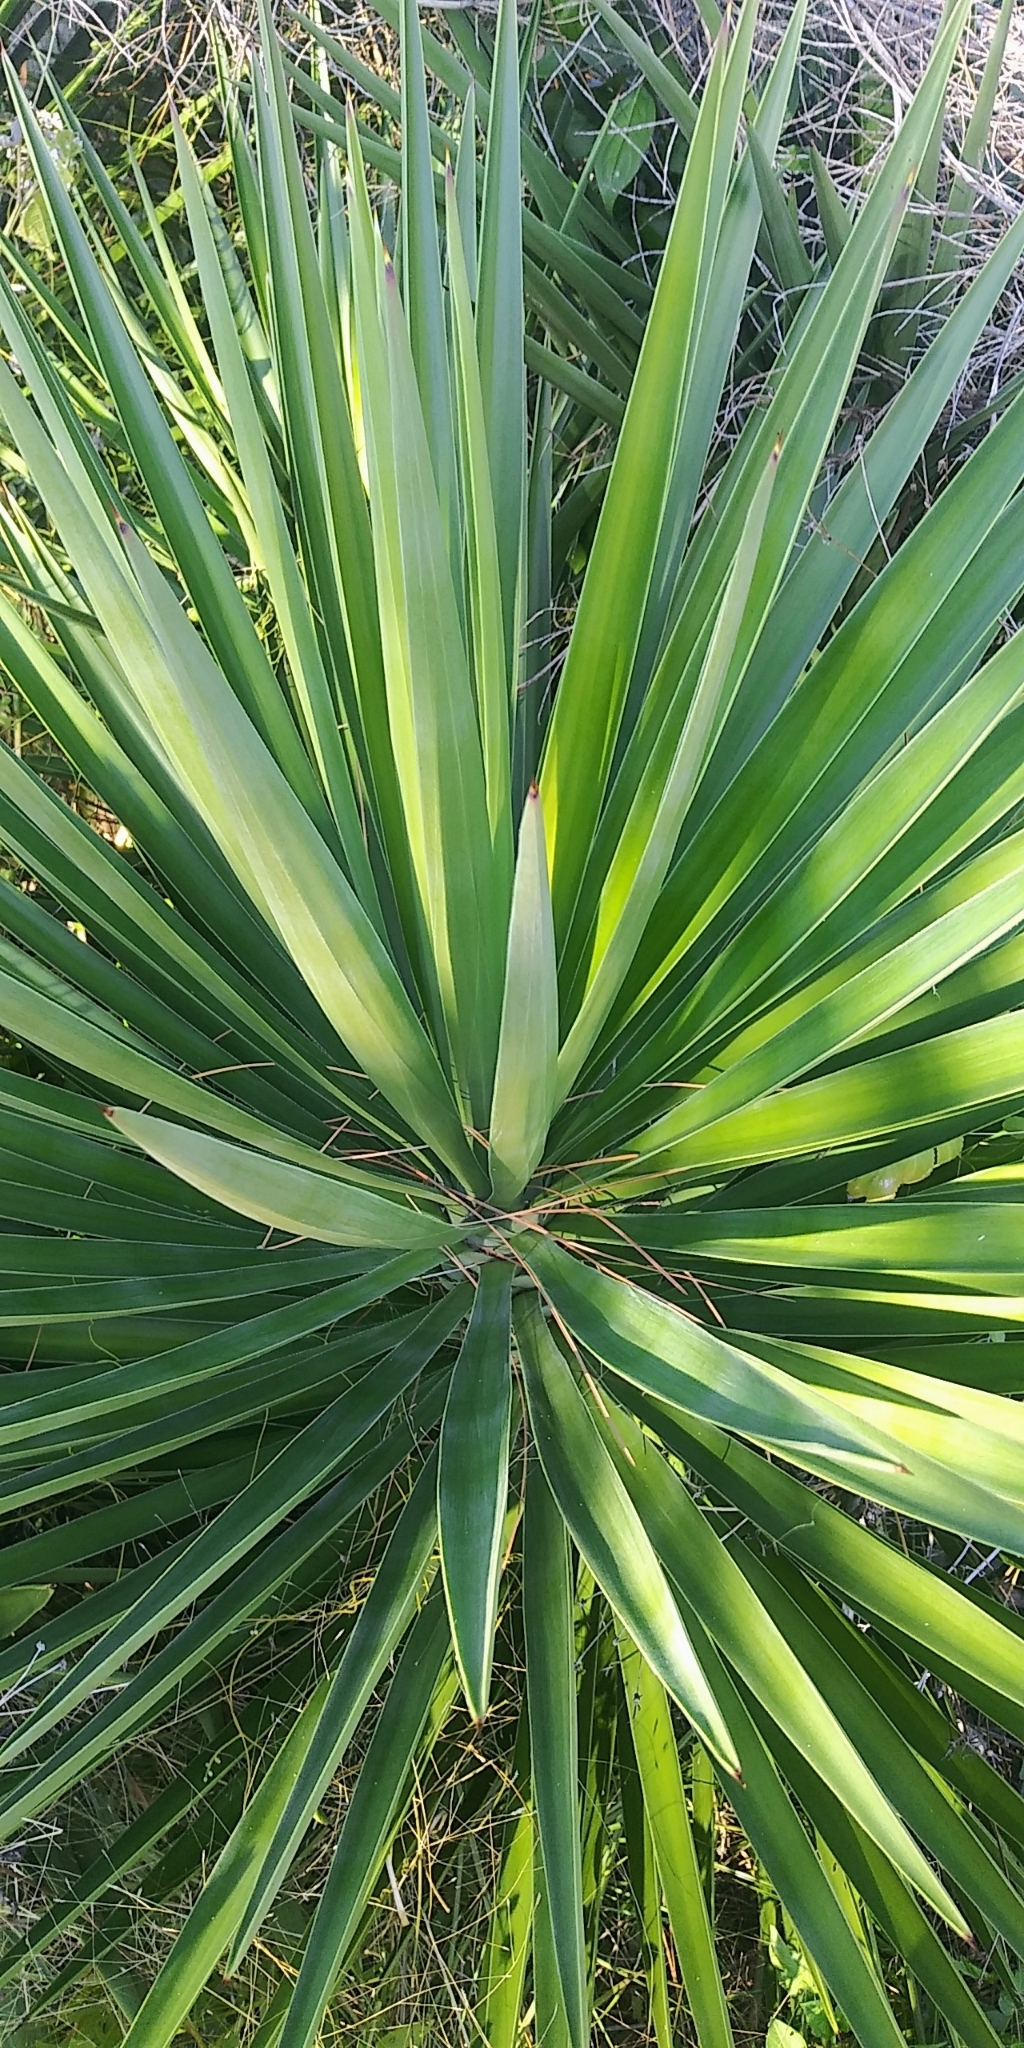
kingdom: Plantae
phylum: Tracheophyta
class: Liliopsida
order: Asparagales
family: Asparagaceae
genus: Yucca
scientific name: Yucca aloifolia
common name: Aloe yucca
